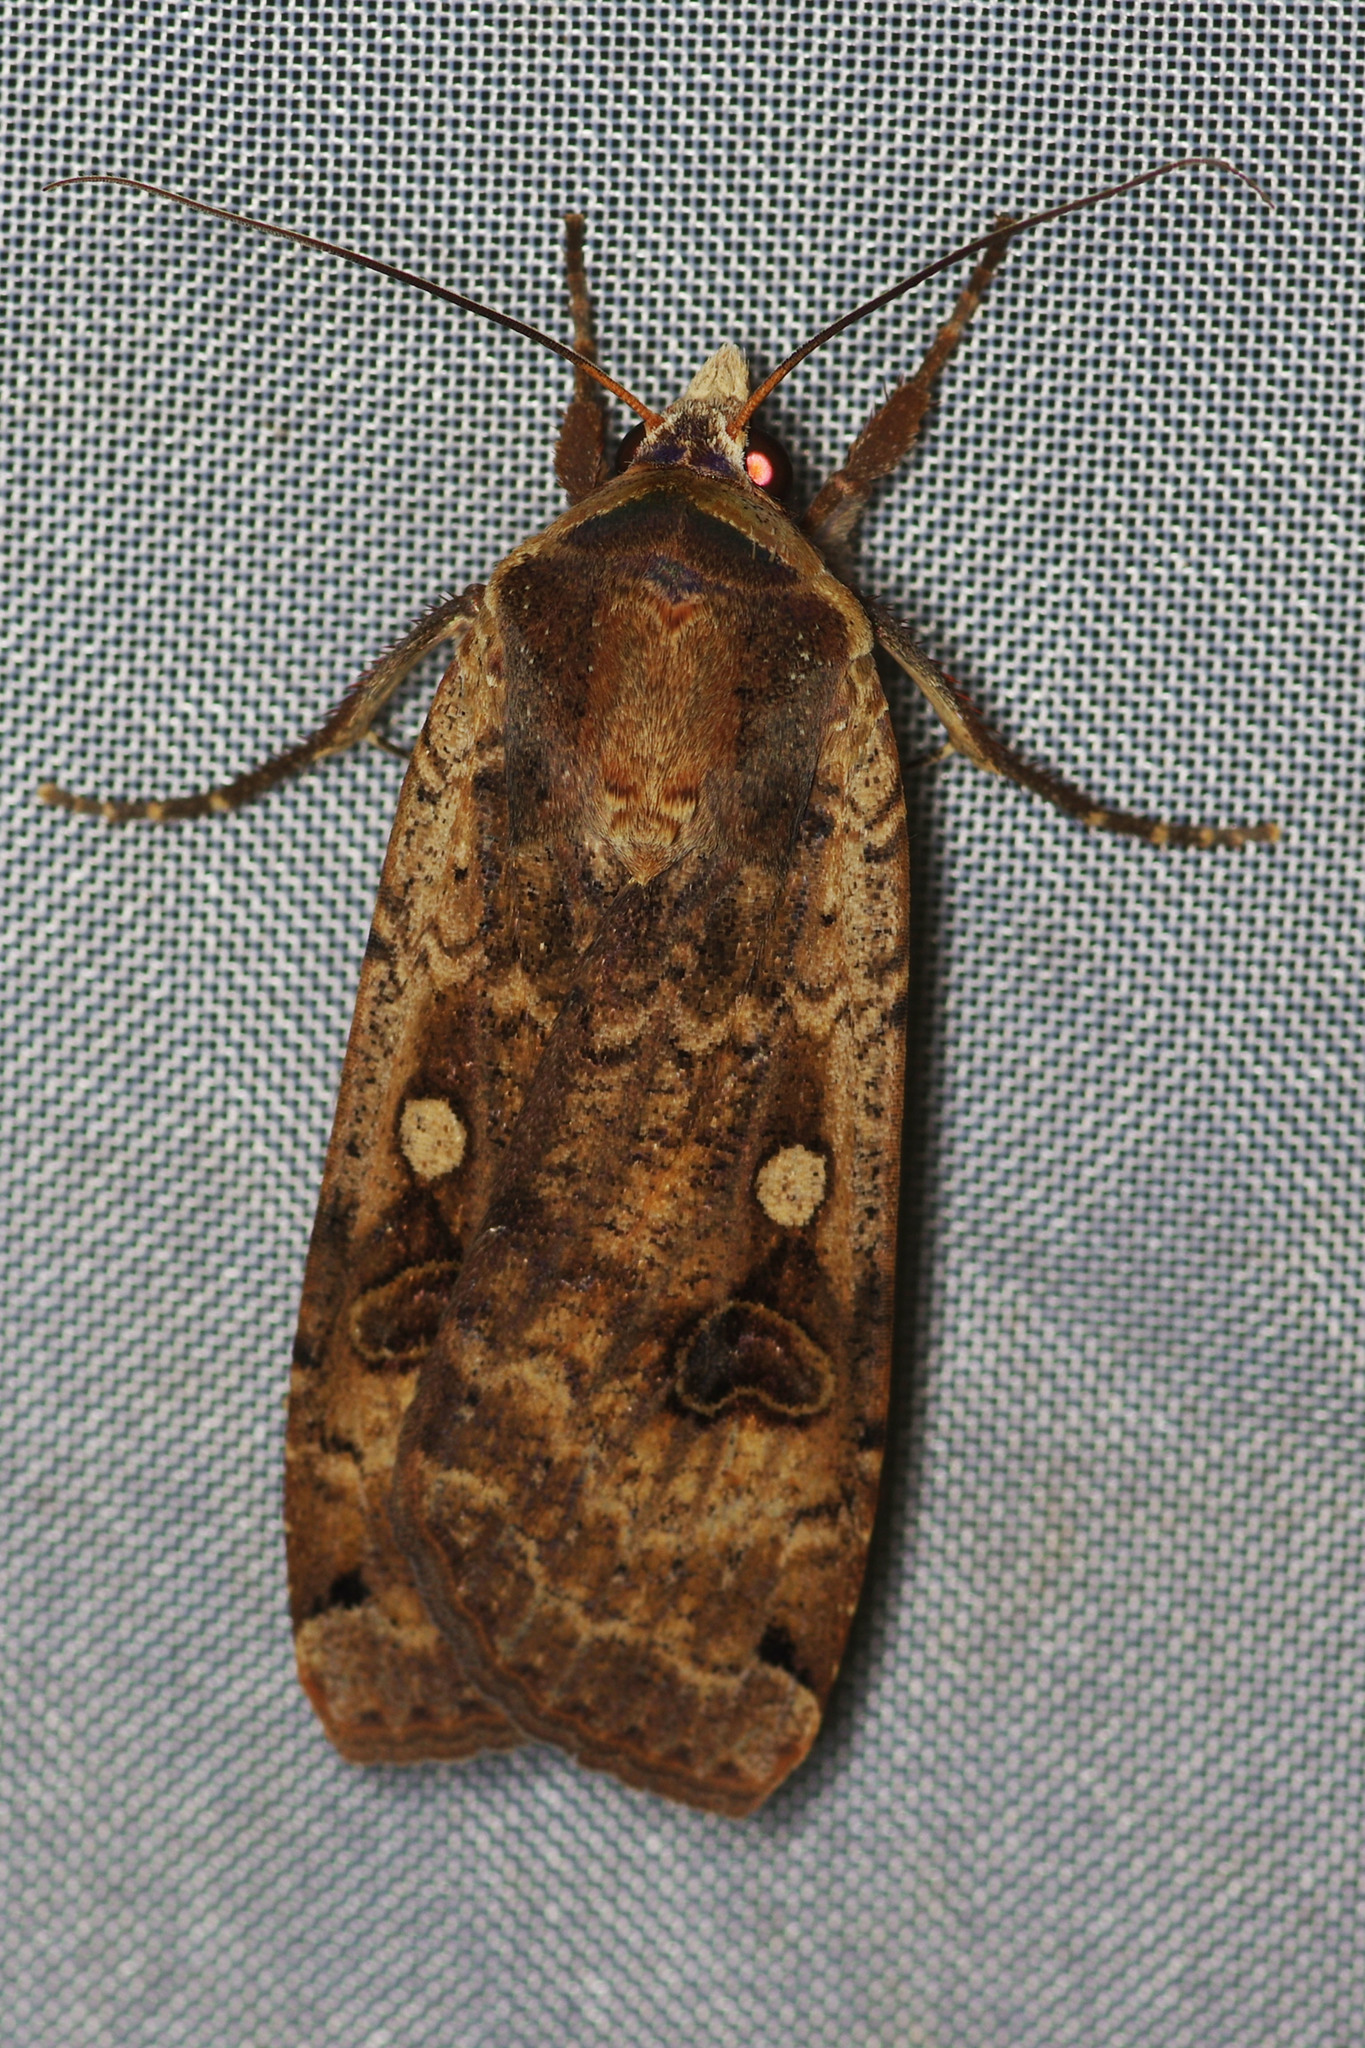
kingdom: Animalia
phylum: Arthropoda
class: Insecta
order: Lepidoptera
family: Noctuidae
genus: Noctua
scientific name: Noctua pronuba
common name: Large yellow underwing
